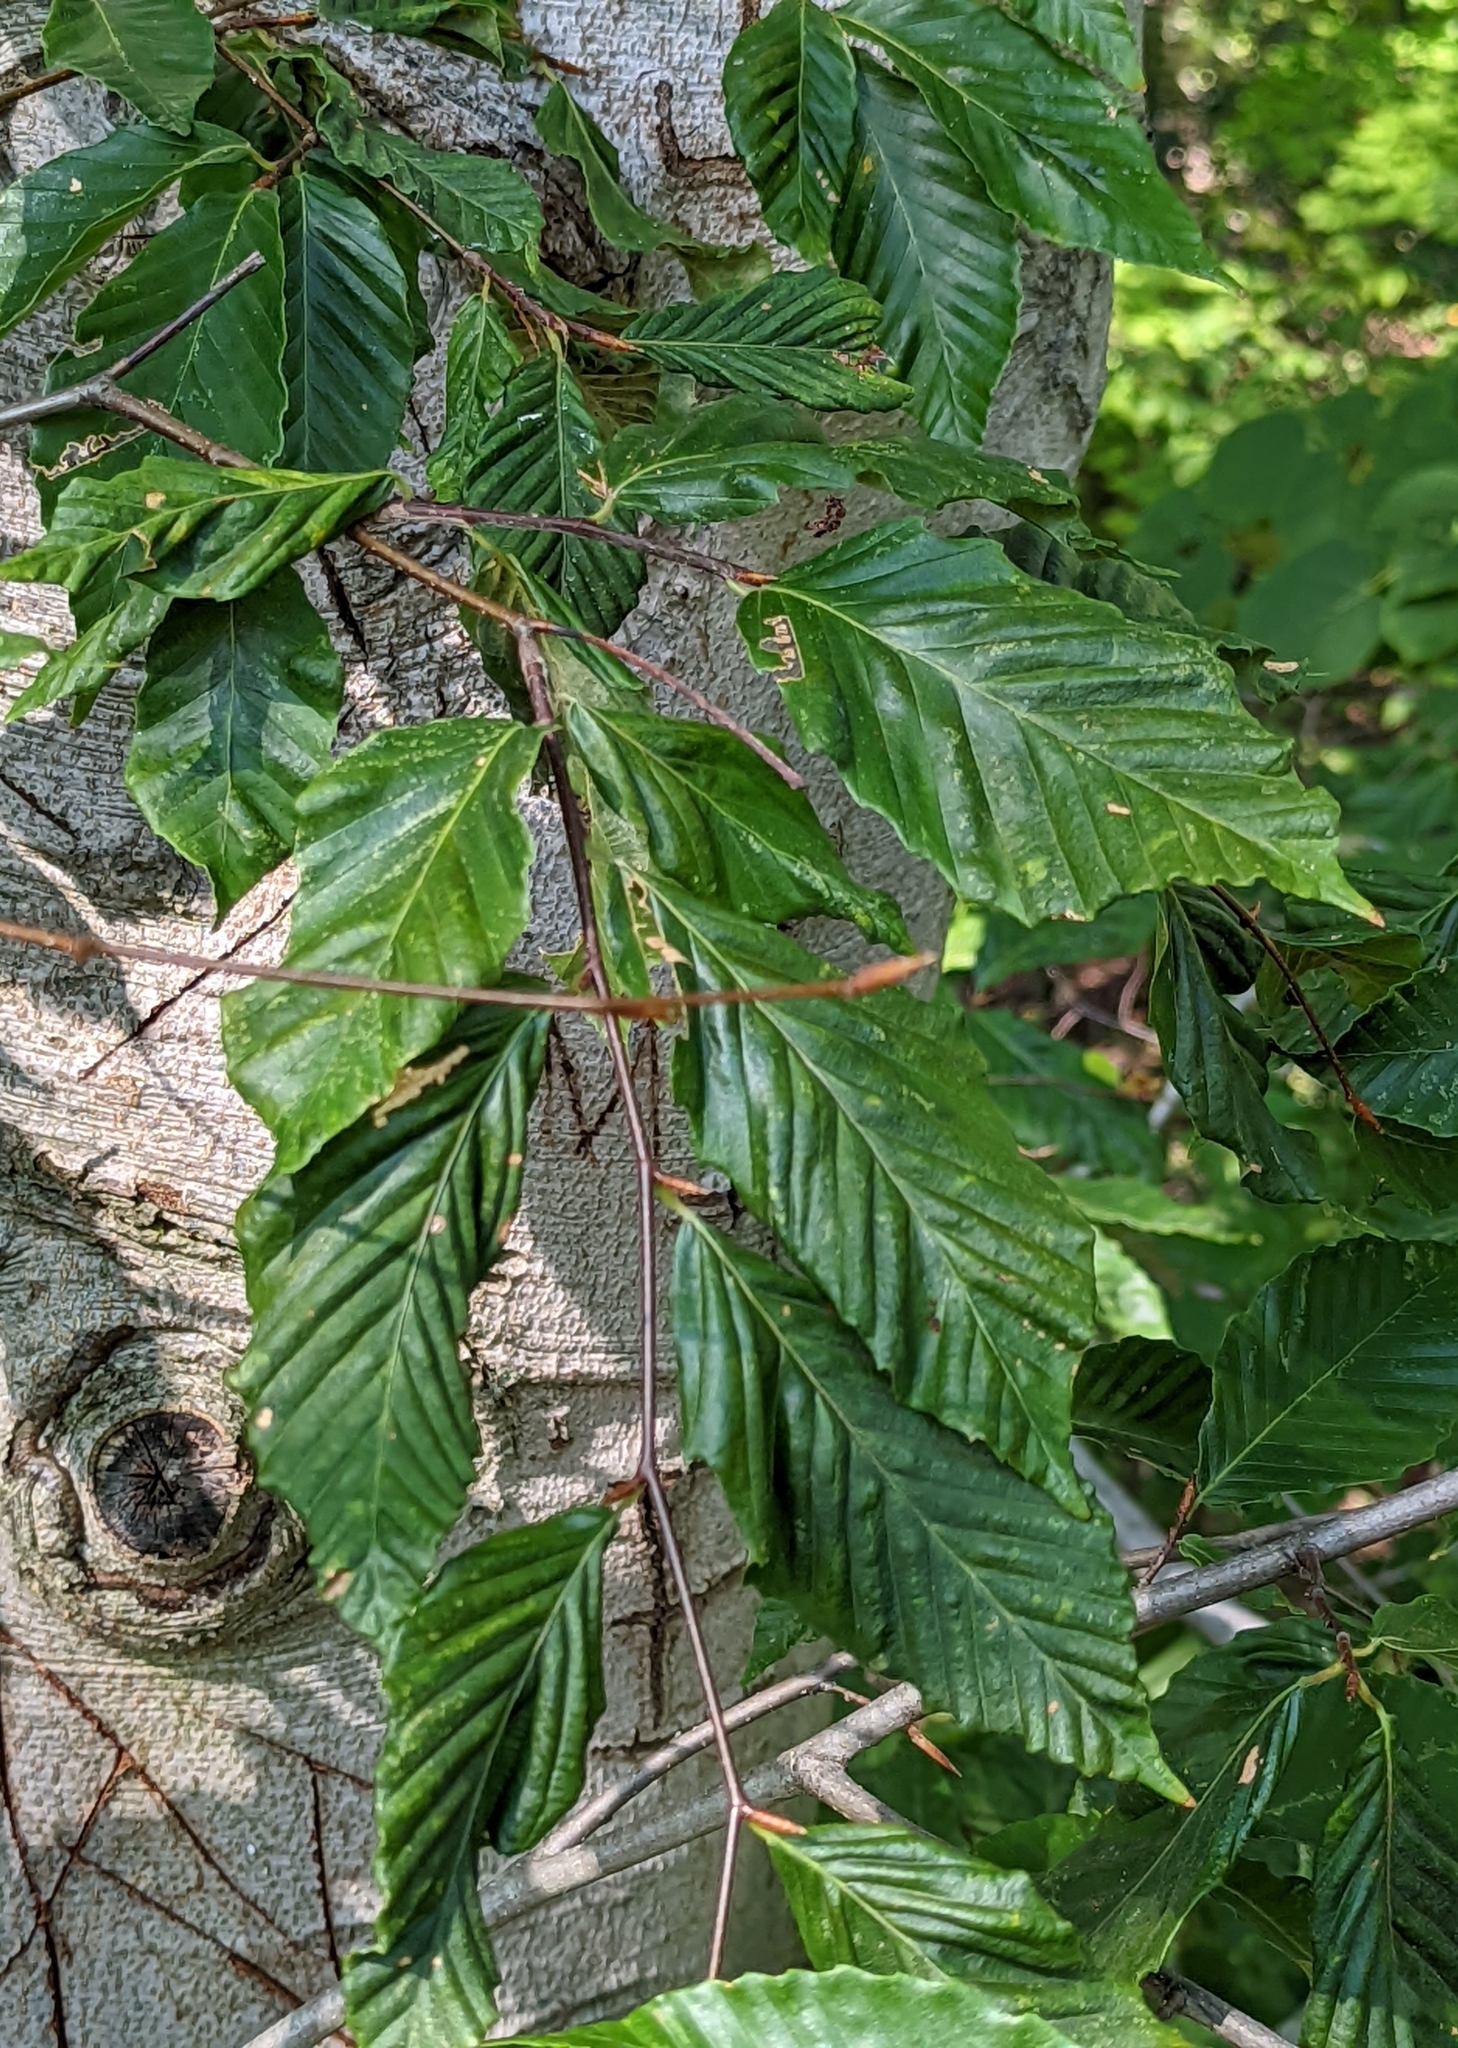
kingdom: Plantae
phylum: Tracheophyta
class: Magnoliopsida
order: Fagales
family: Fagaceae
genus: Fagus
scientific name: Fagus grandifolia
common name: American beech
